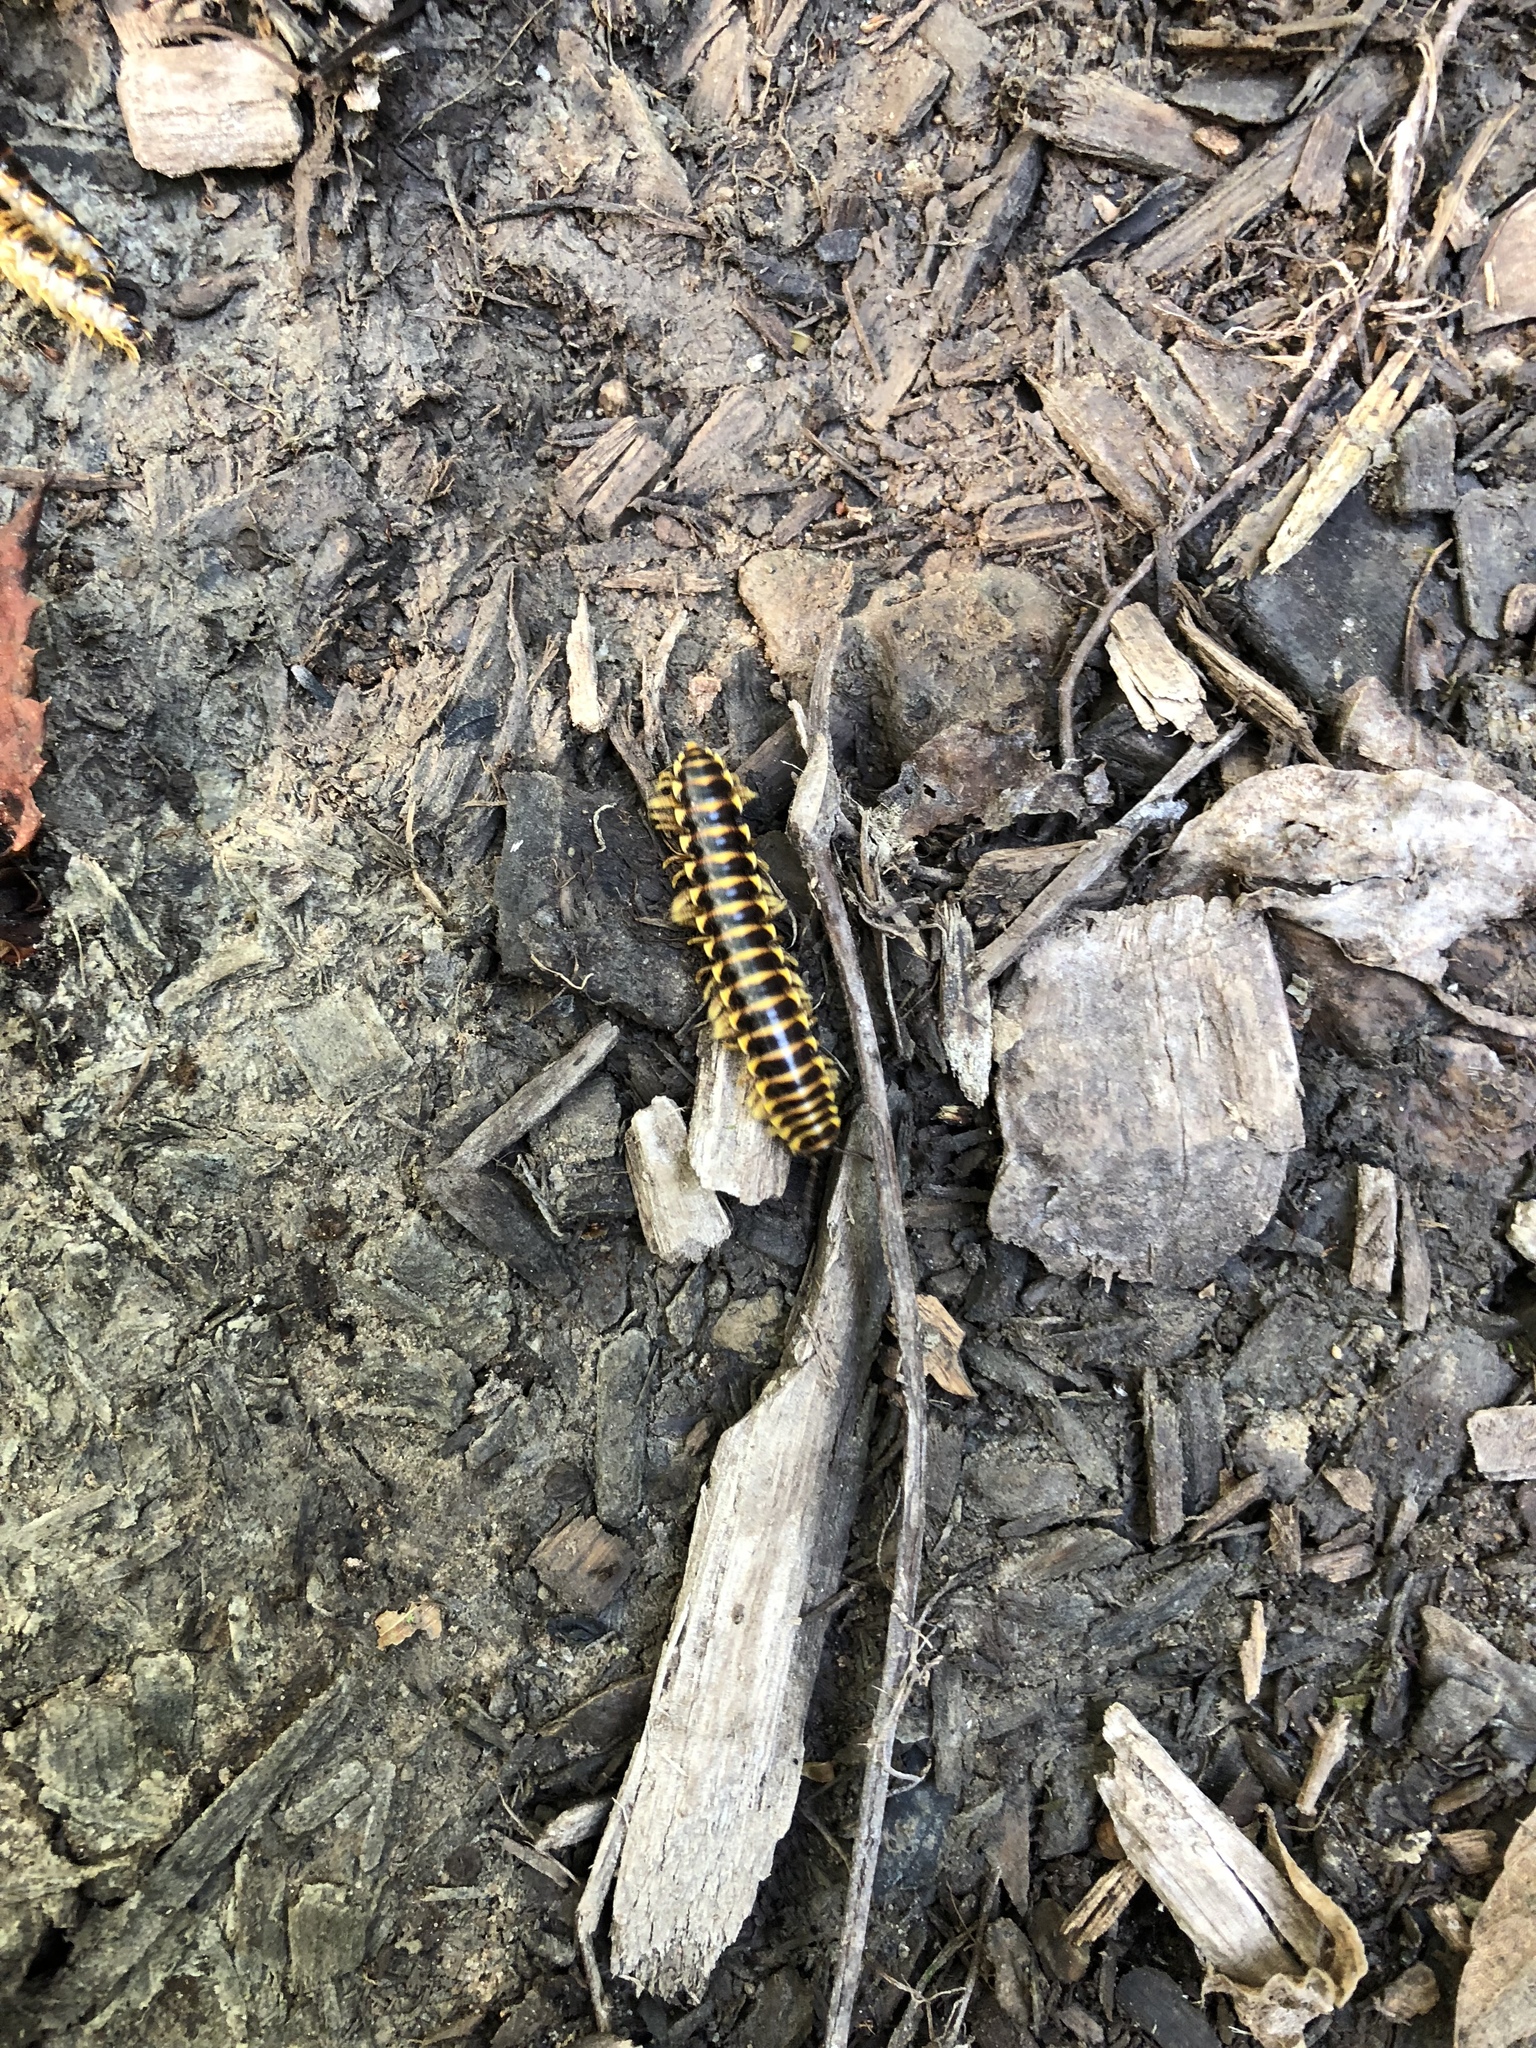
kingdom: Animalia
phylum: Arthropoda
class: Diplopoda
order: Polydesmida
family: Xystodesmidae
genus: Pleuroloma
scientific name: Pleuroloma flavipes
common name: Yellow-legged pleuroloma
